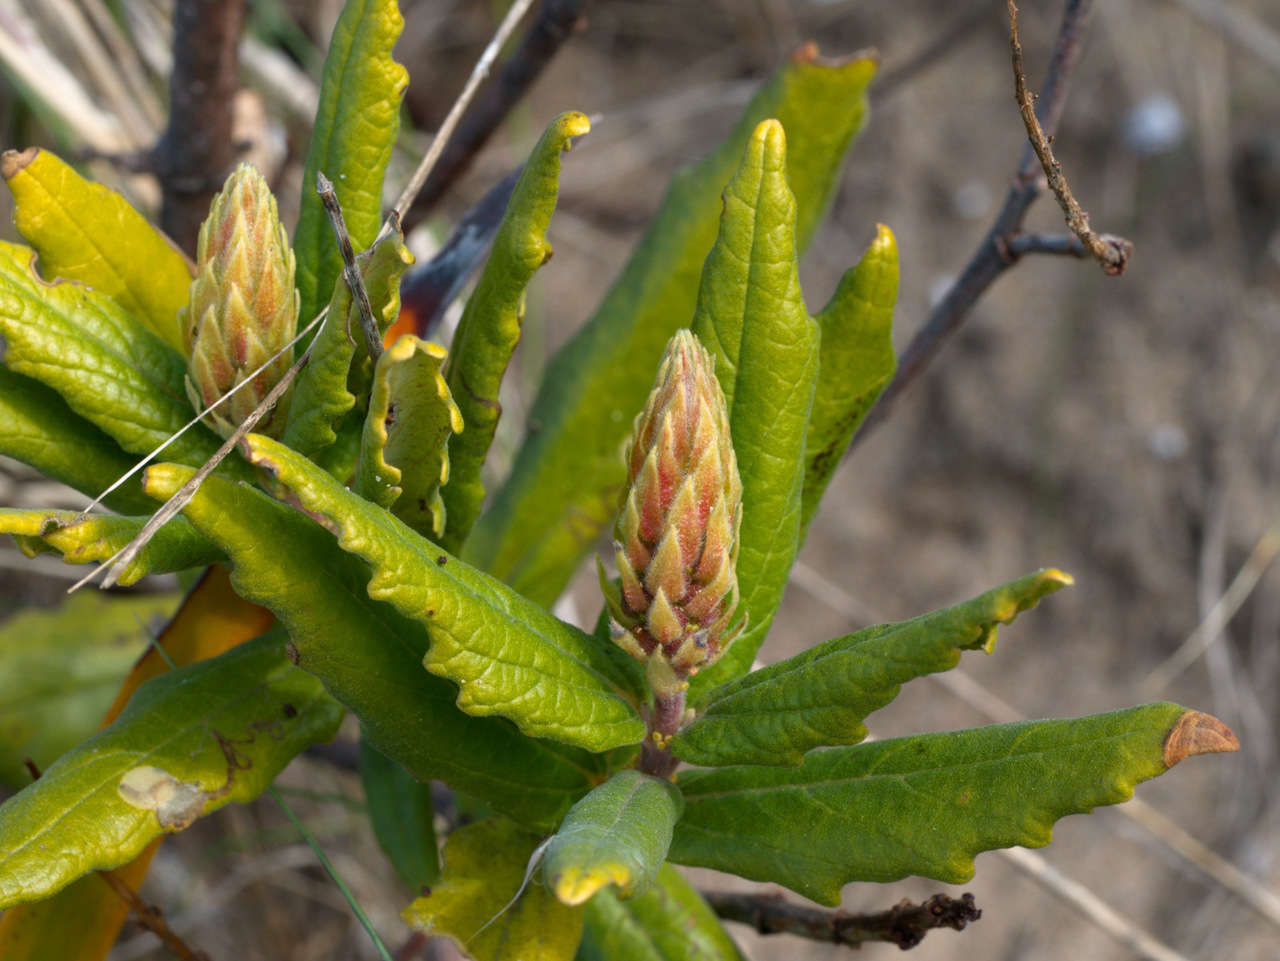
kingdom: Plantae
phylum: Tracheophyta
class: Magnoliopsida
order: Malpighiales
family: Euphorbiaceae
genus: Adriana
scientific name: Adriana quadripartita
